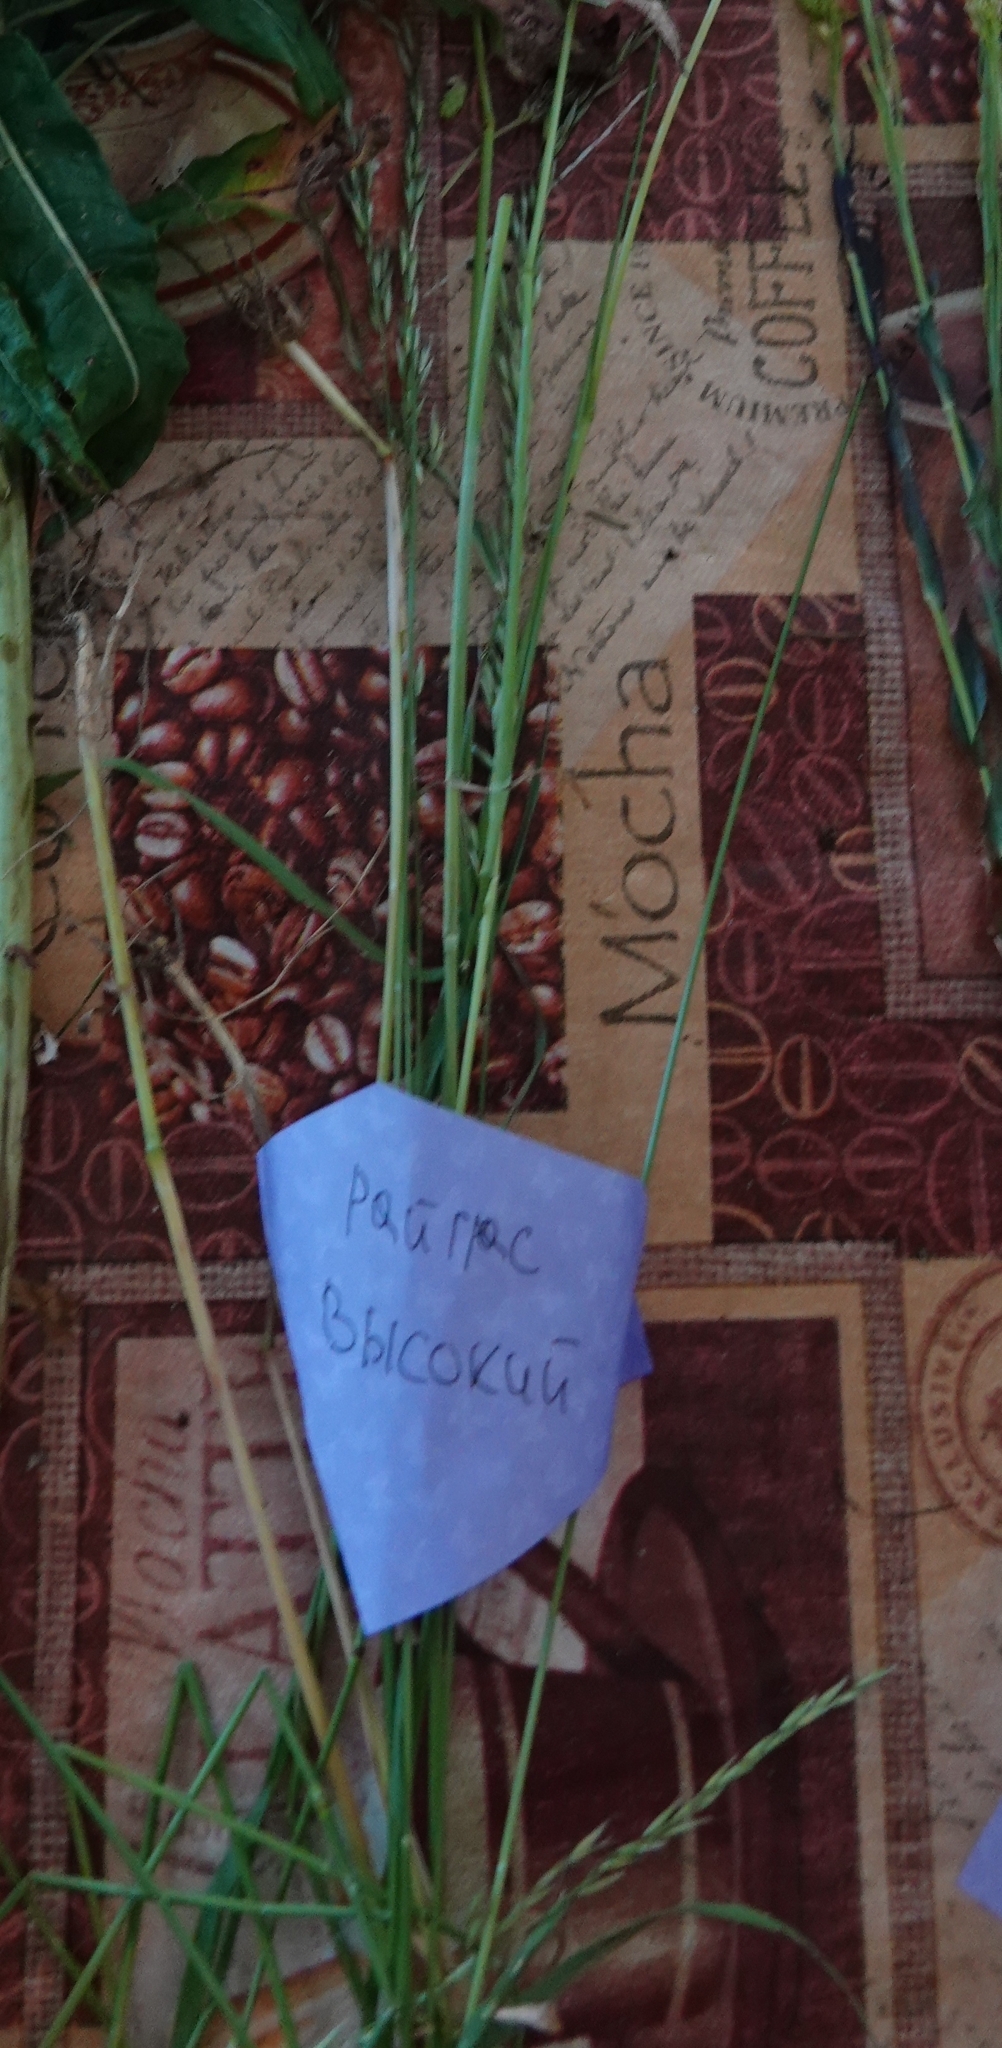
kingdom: Plantae
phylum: Tracheophyta
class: Liliopsida
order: Poales
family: Poaceae
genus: Arrhenatherum
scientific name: Arrhenatherum elatius
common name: Tall oatgrass
